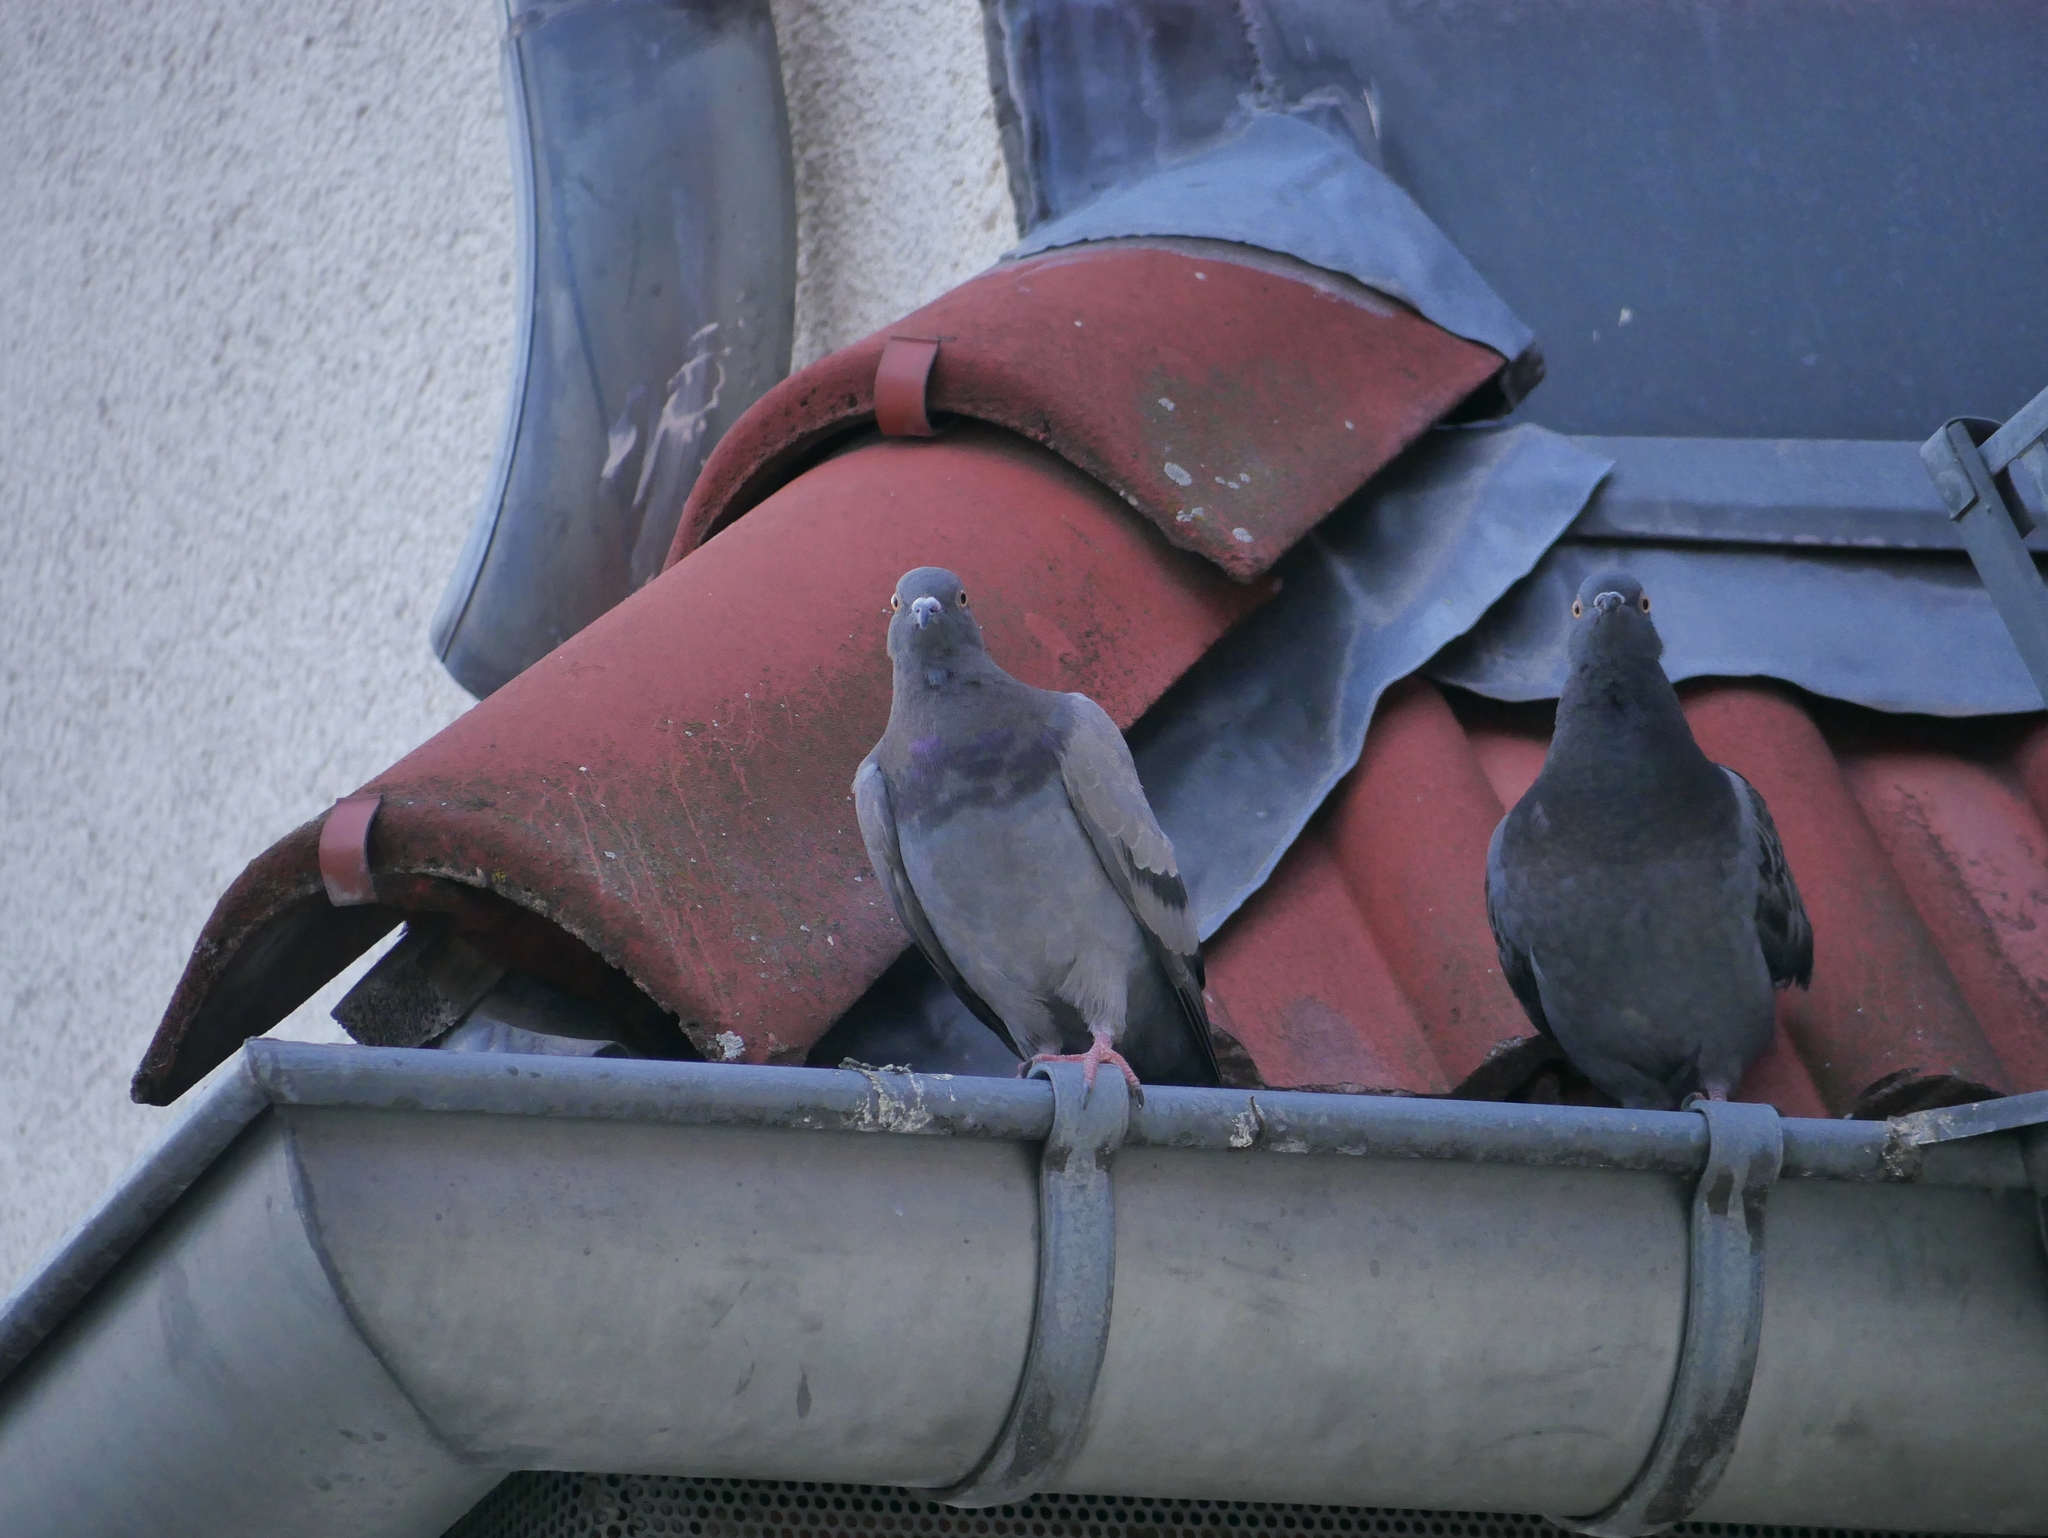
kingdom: Animalia
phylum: Chordata
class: Aves
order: Columbiformes
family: Columbidae
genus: Columba
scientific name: Columba livia
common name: Rock pigeon
